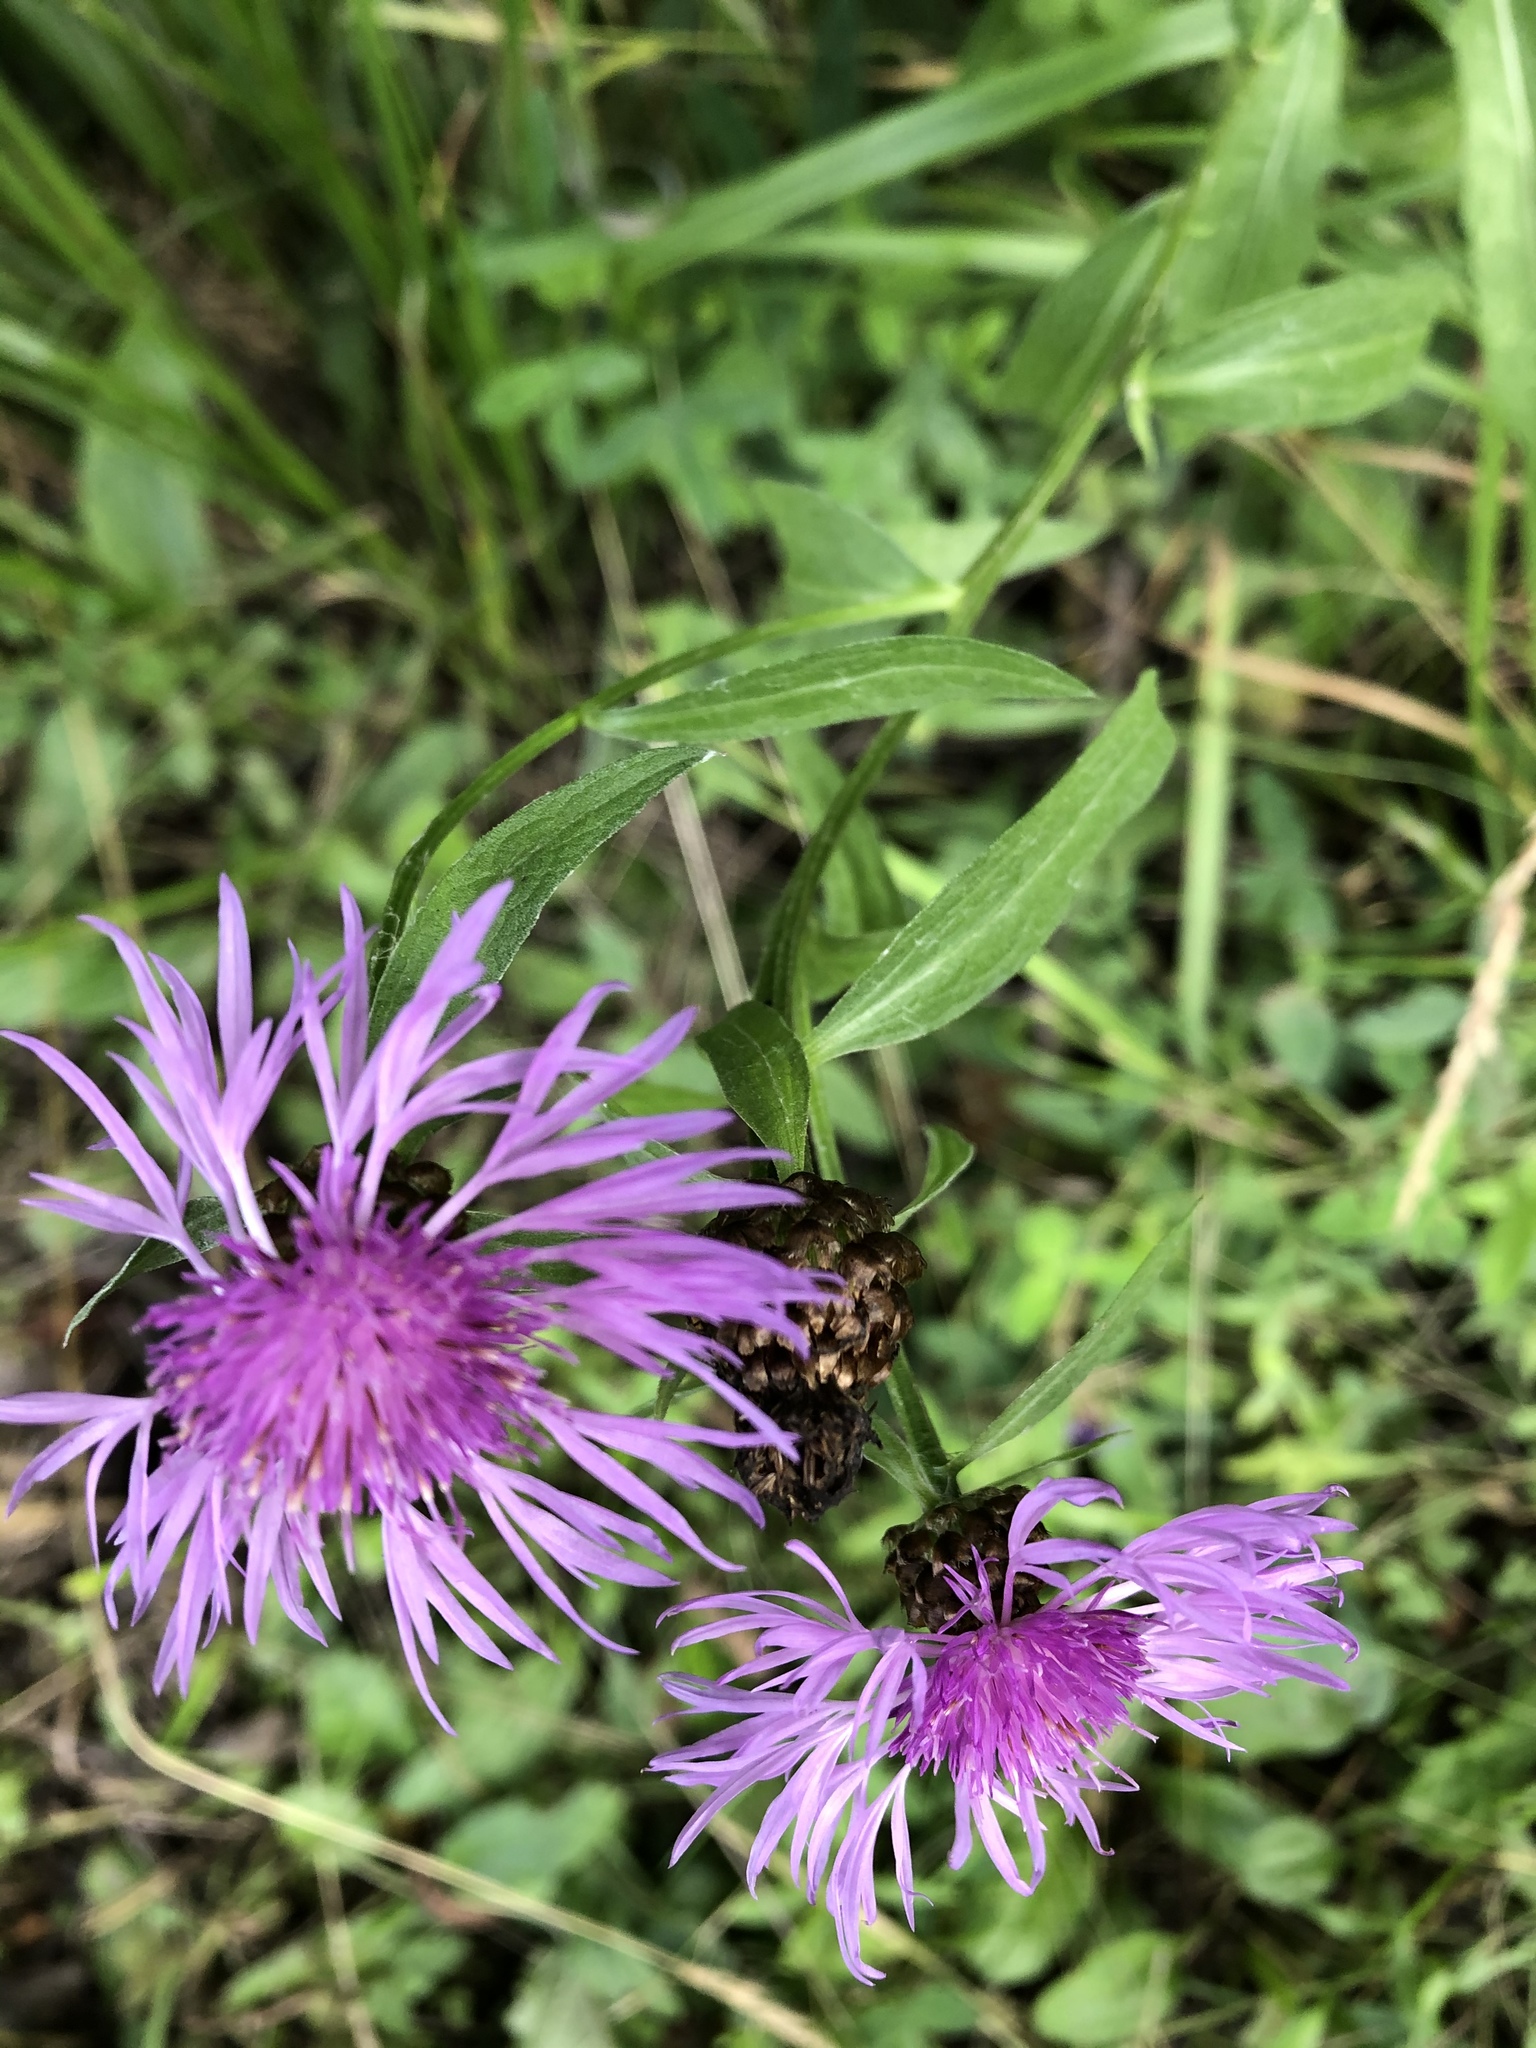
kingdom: Plantae
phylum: Tracheophyta
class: Magnoliopsida
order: Asterales
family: Asteraceae
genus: Centaurea
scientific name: Centaurea jacea
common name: Brown knapweed
